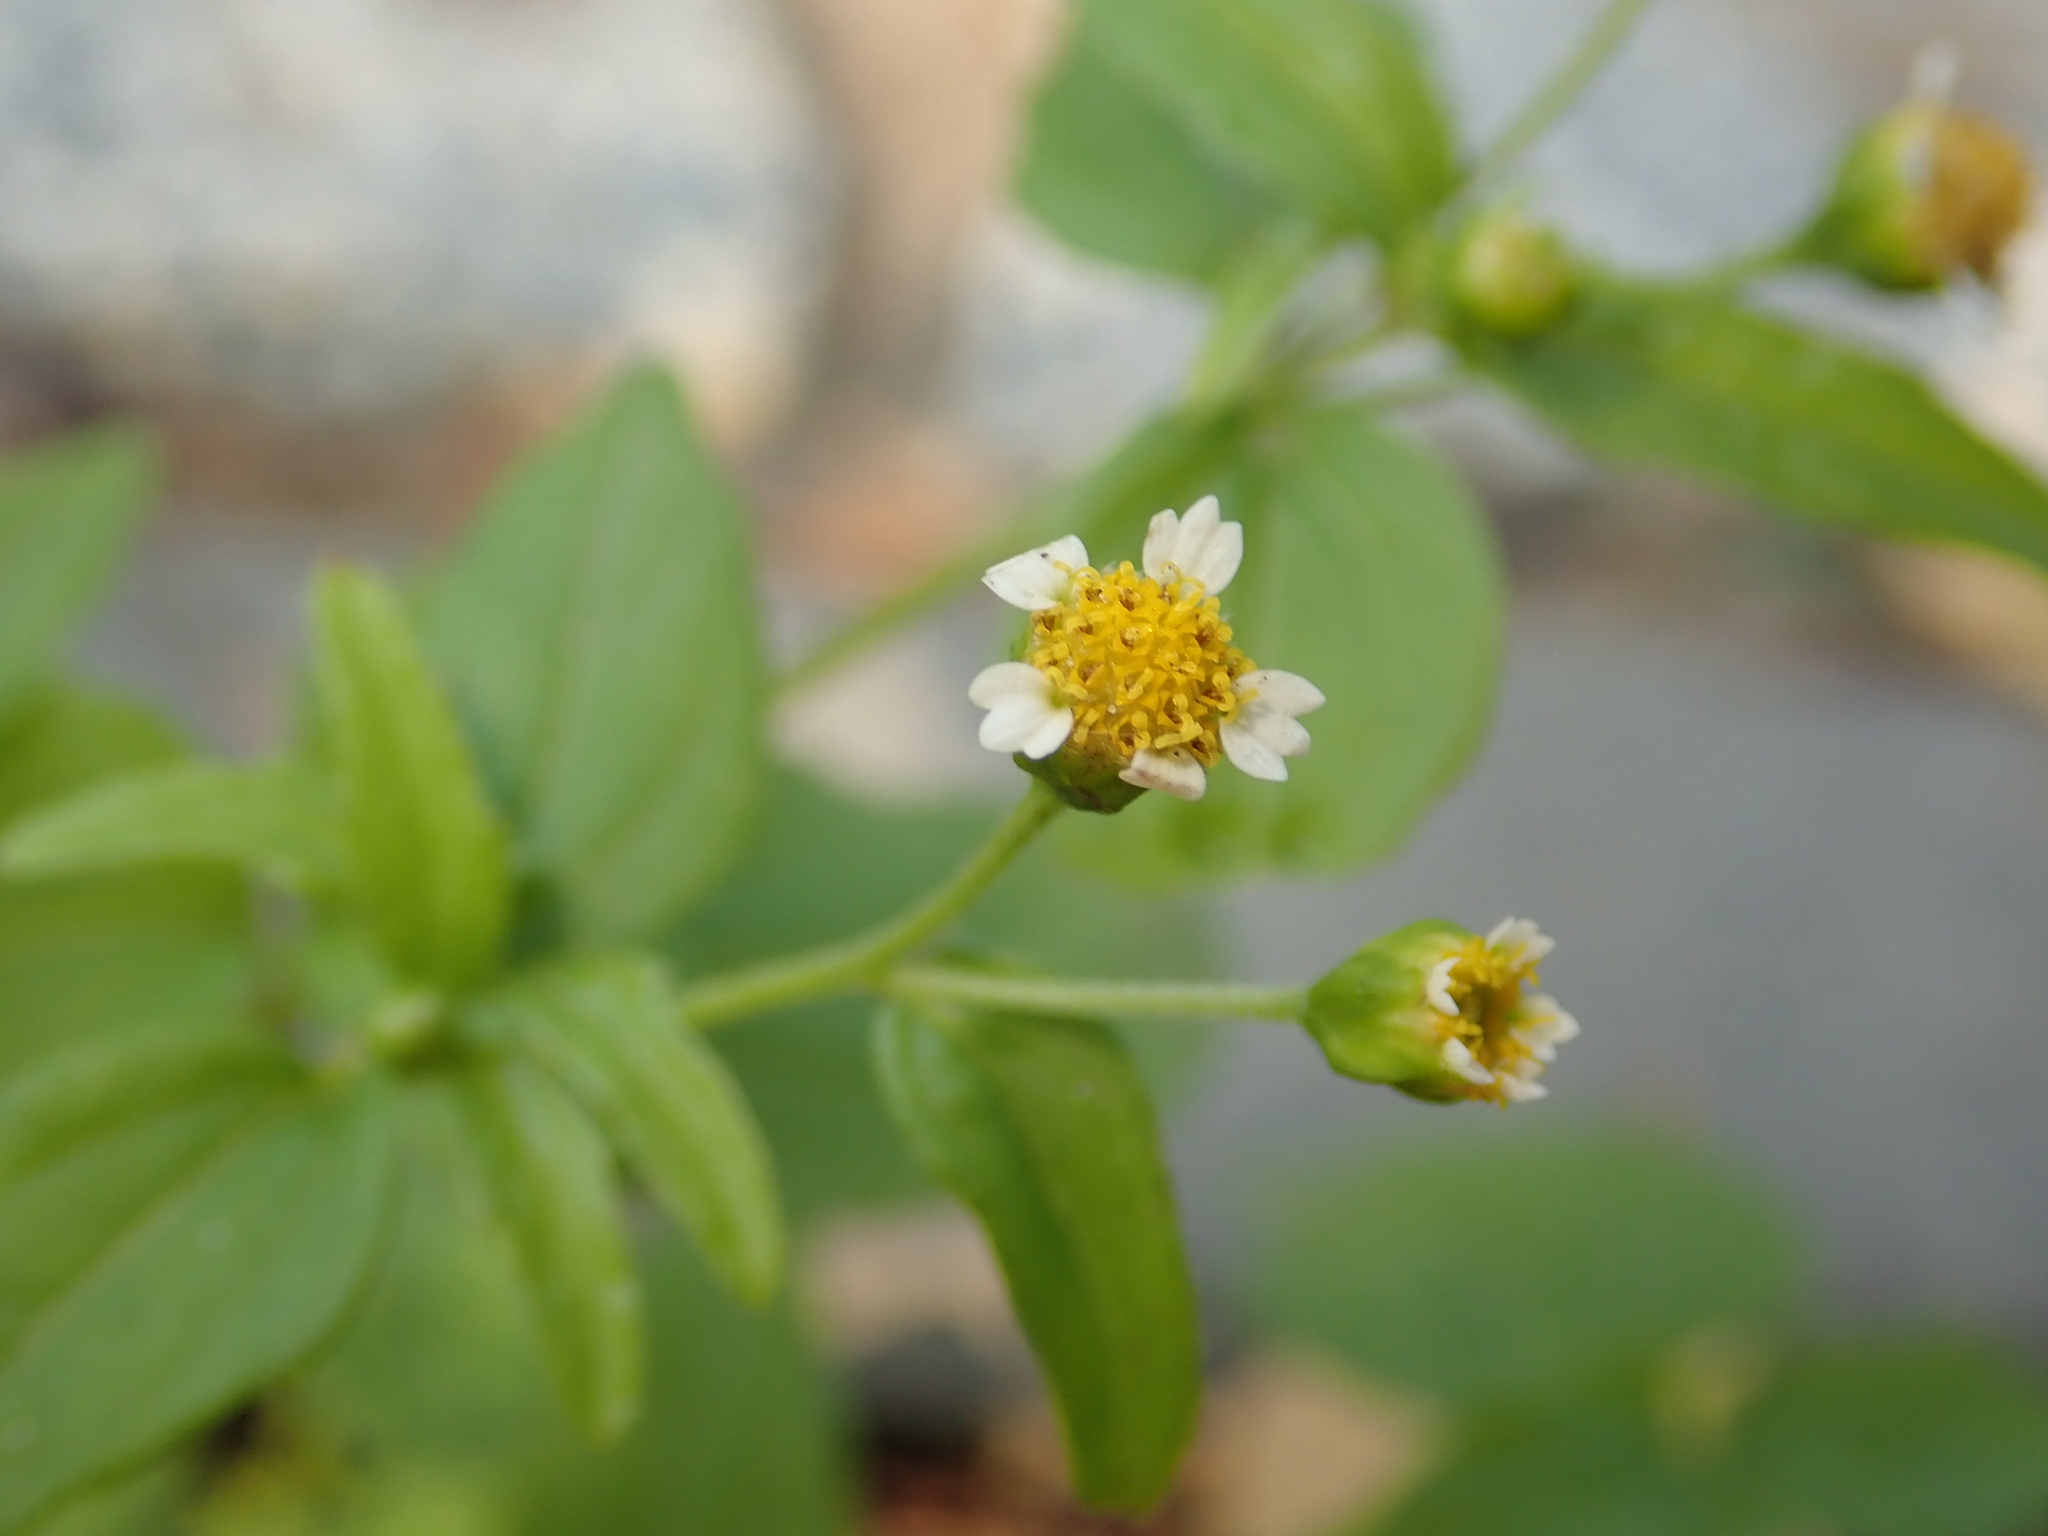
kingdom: Plantae
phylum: Tracheophyta
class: Magnoliopsida
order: Asterales
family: Asteraceae
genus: Galinsoga
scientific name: Galinsoga parviflora
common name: Gallant soldier
